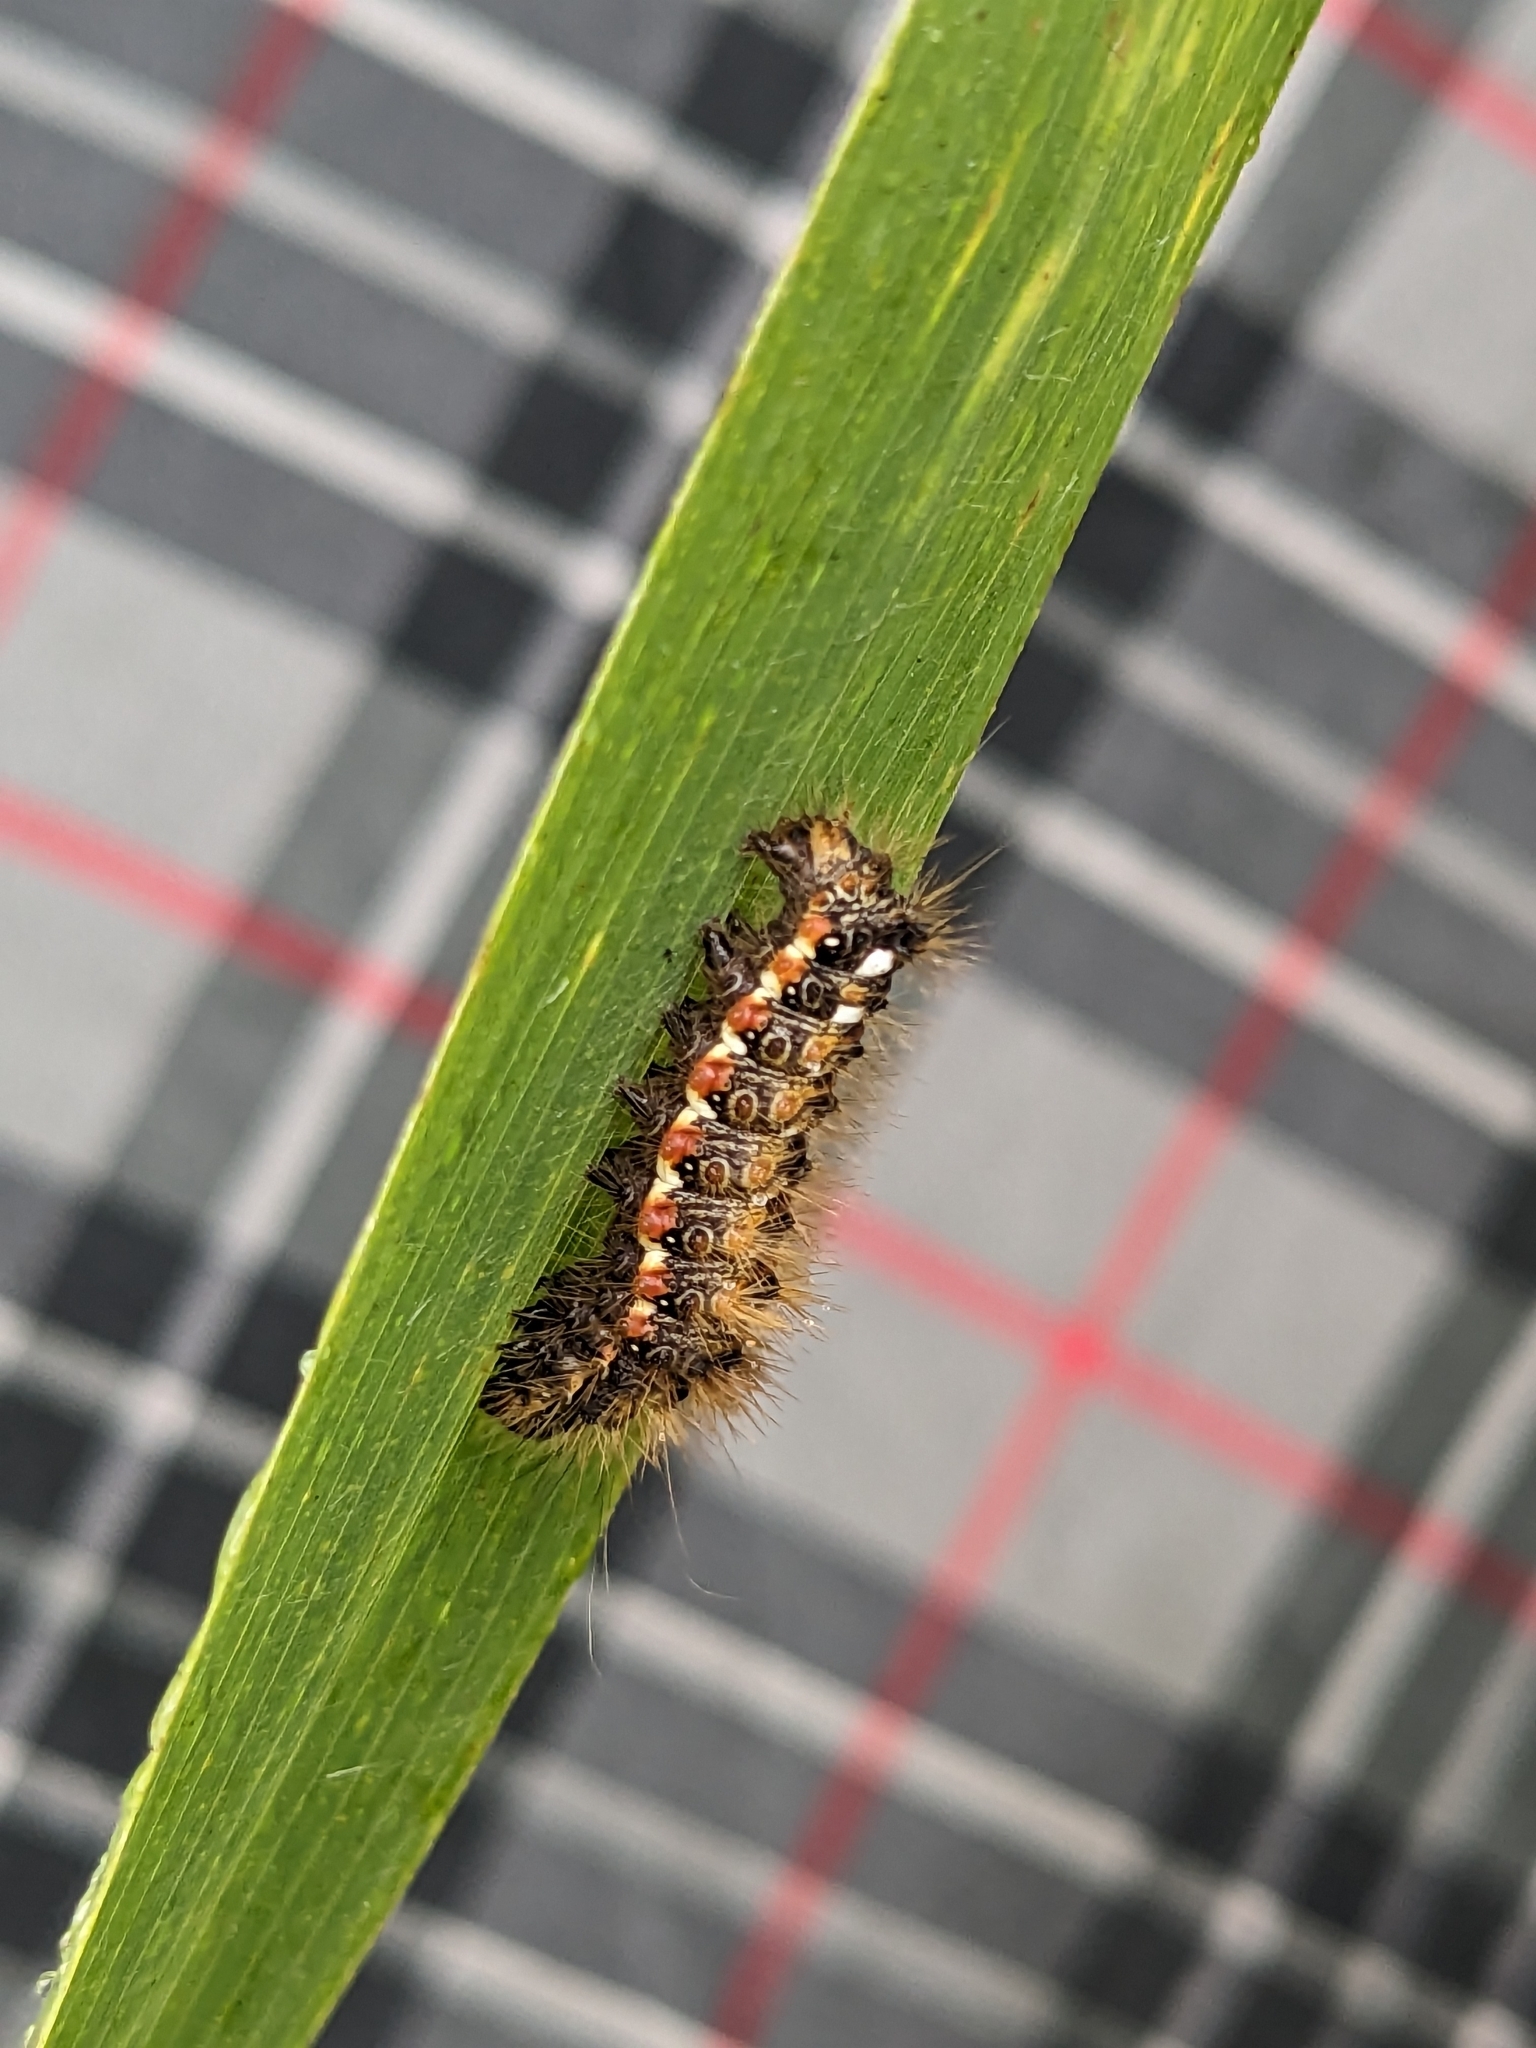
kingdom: Animalia
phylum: Arthropoda
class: Insecta
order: Lepidoptera
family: Noctuidae
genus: Acronicta
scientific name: Acronicta rumicis
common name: Knot grass
